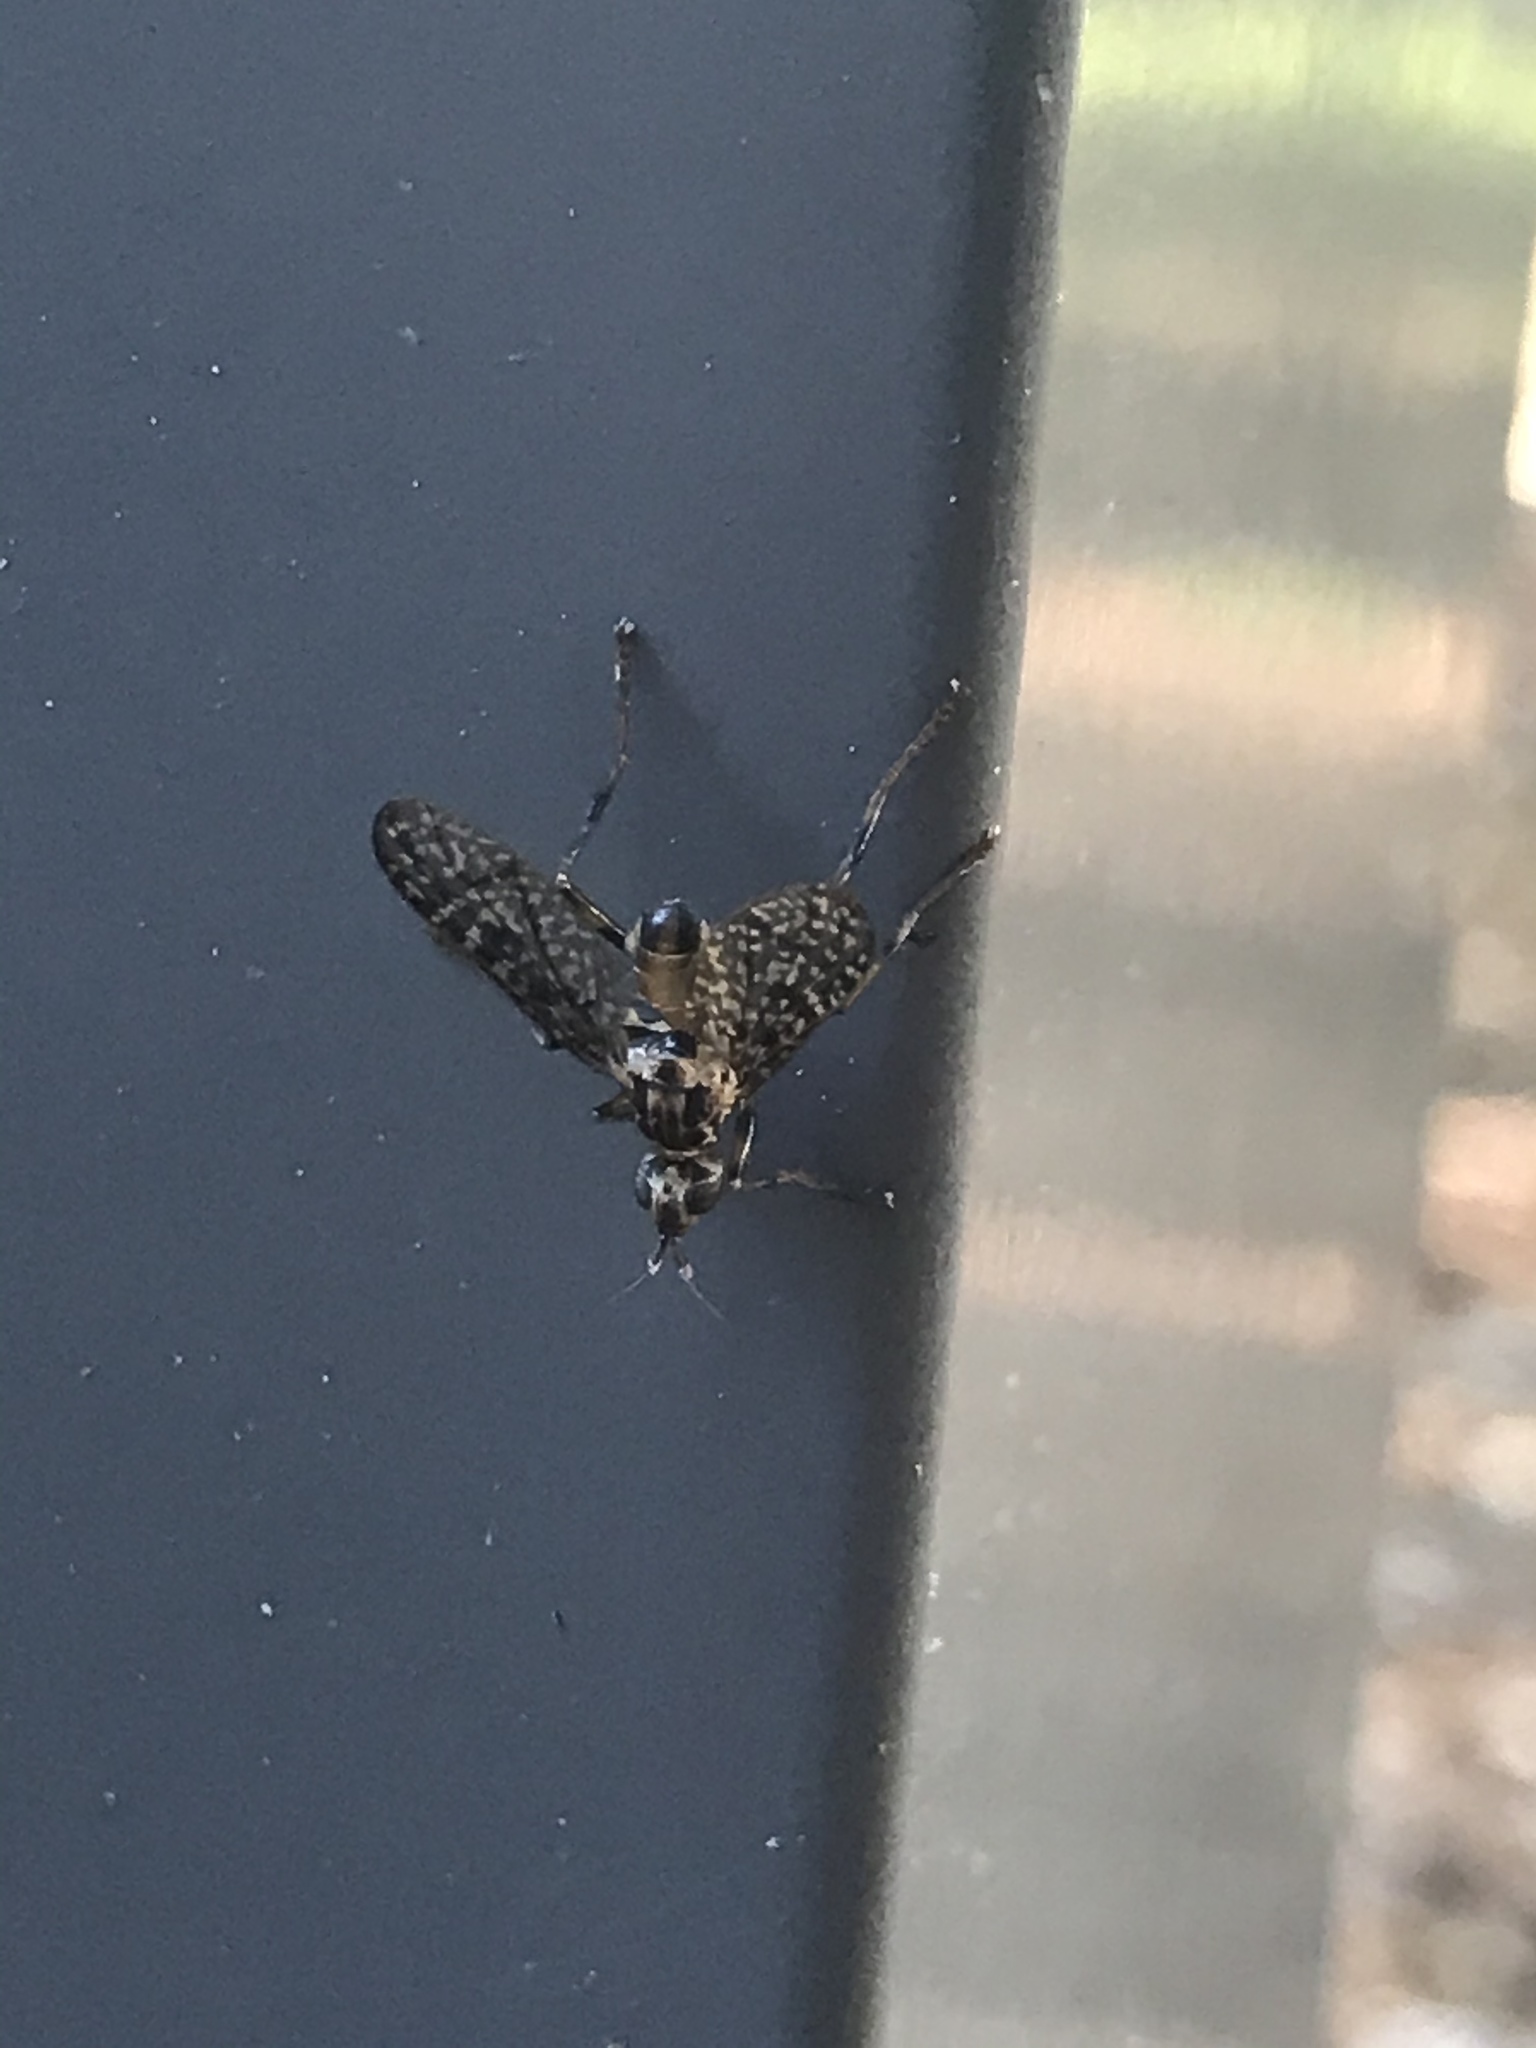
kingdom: Animalia
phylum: Arthropoda
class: Insecta
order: Diptera
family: Pyrgotidae
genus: Boreothrinax
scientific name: Boreothrinax
